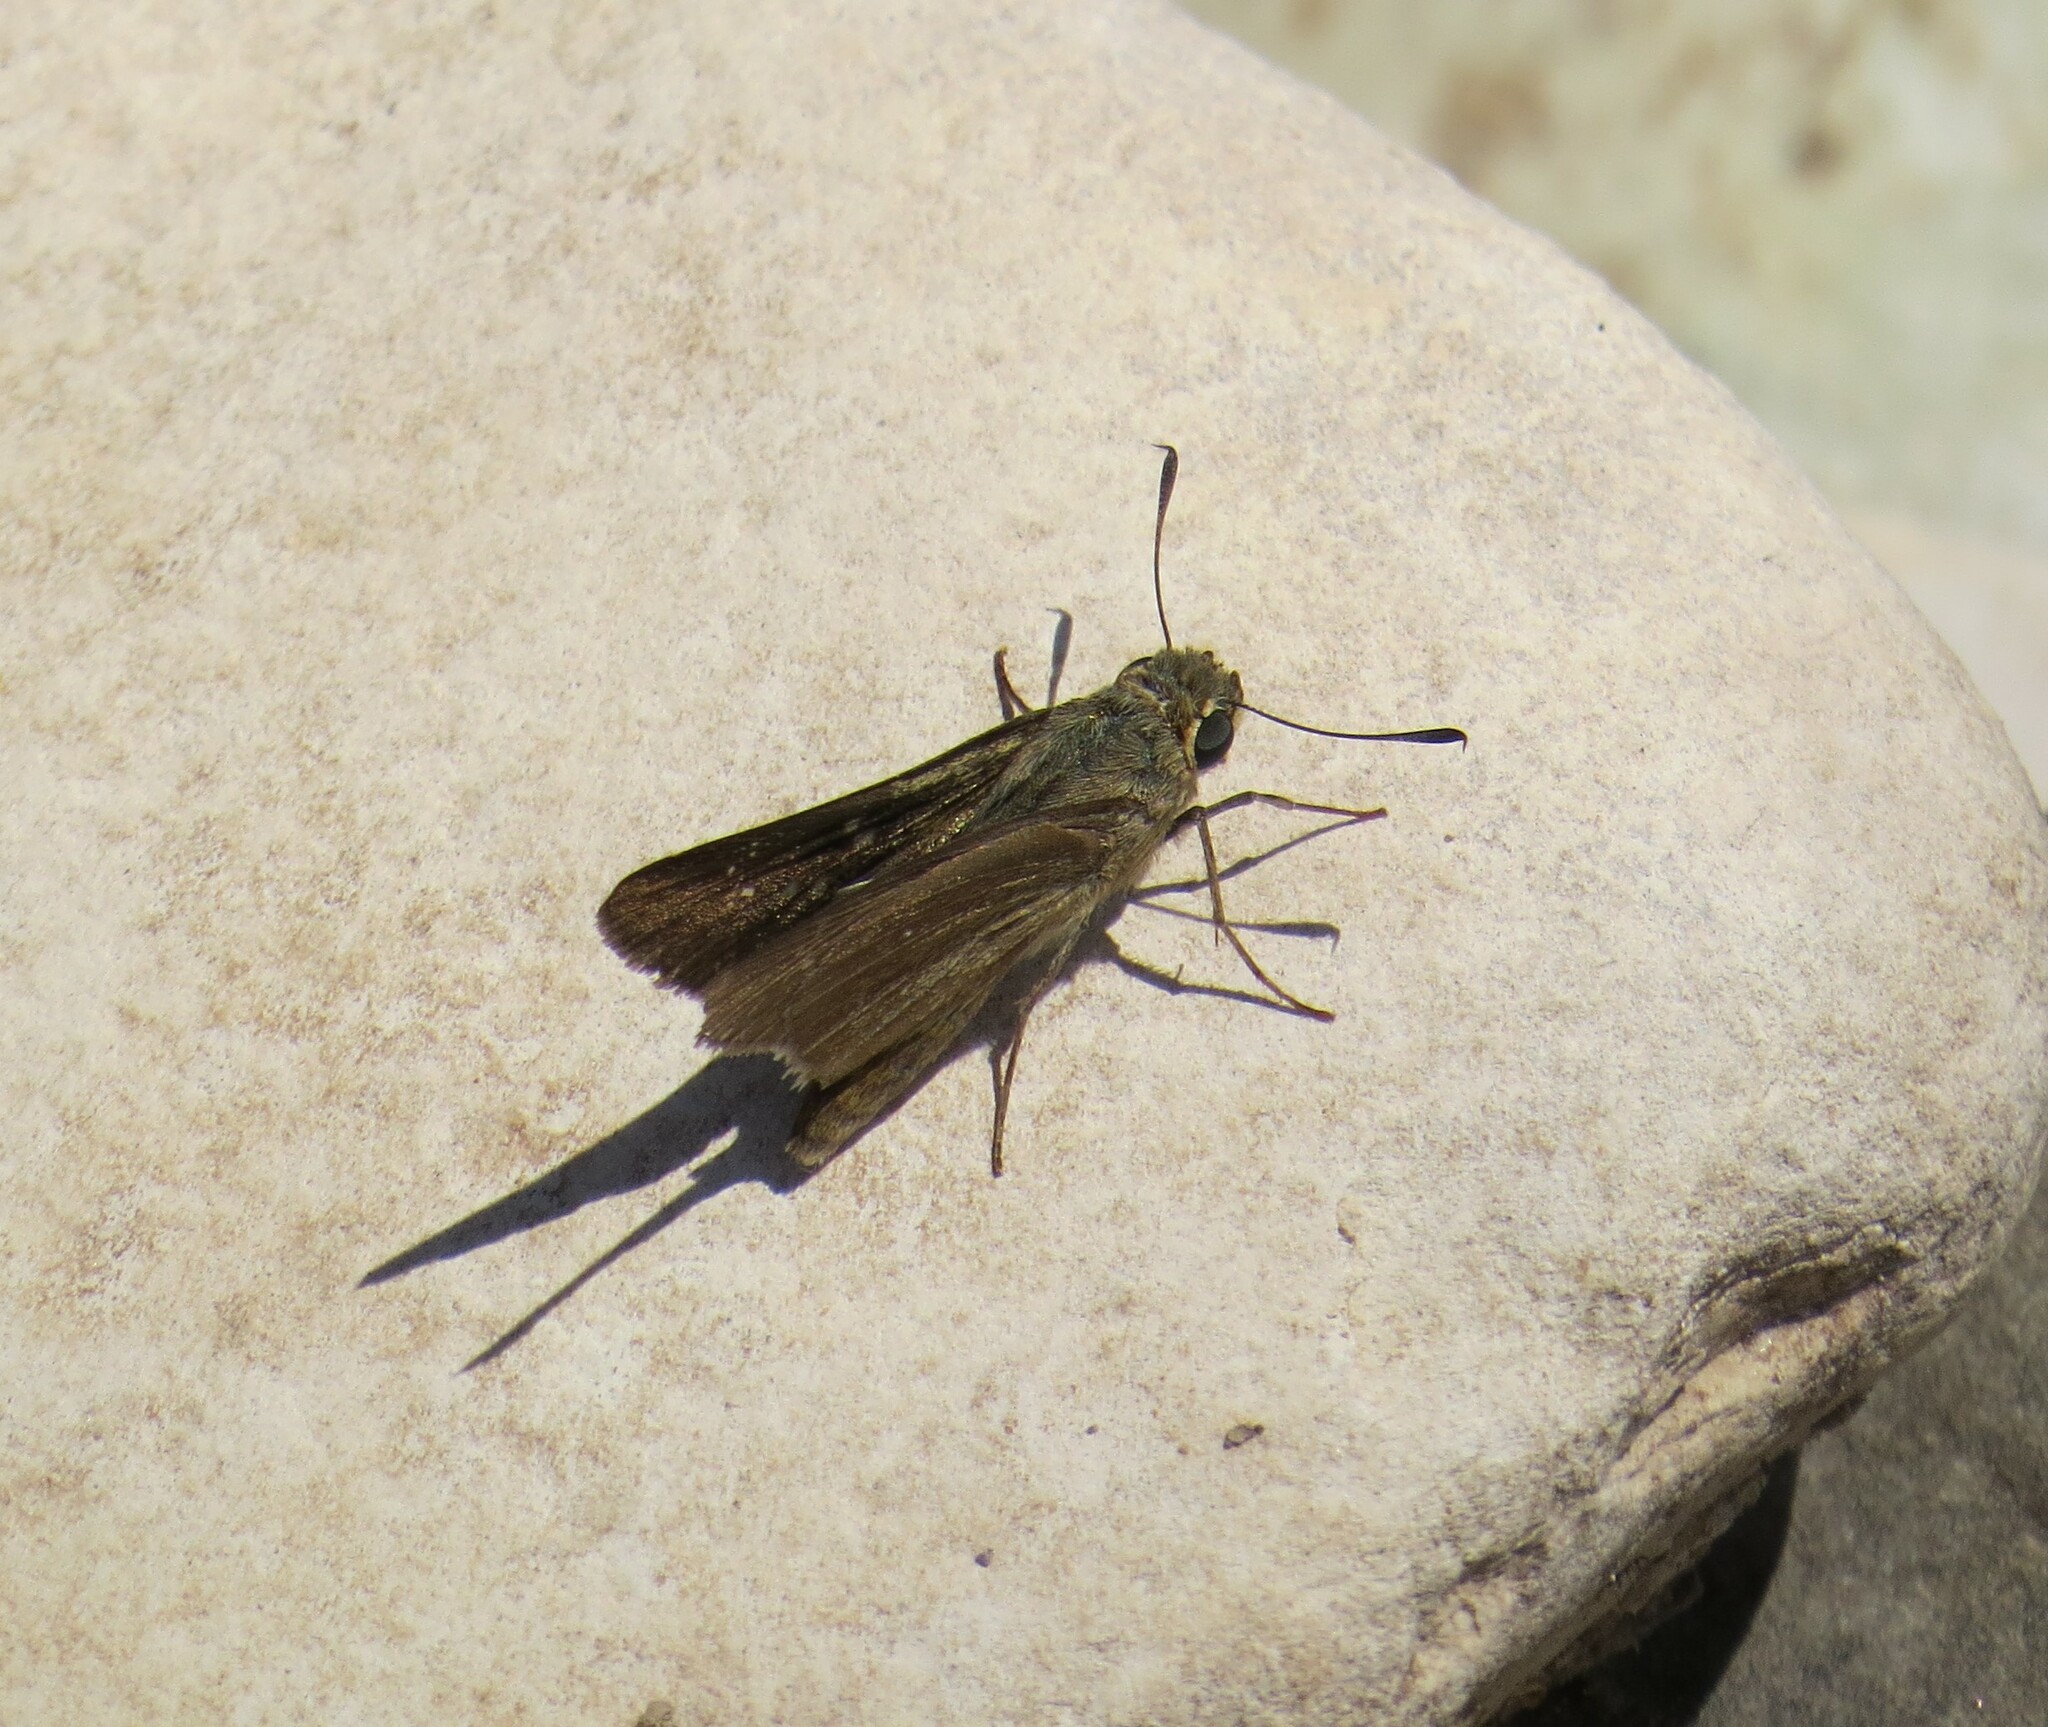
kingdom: Animalia
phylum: Arthropoda
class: Insecta
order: Lepidoptera
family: Hesperiidae
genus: Pelopidas
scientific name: Pelopidas thrax
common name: Millet skipper
